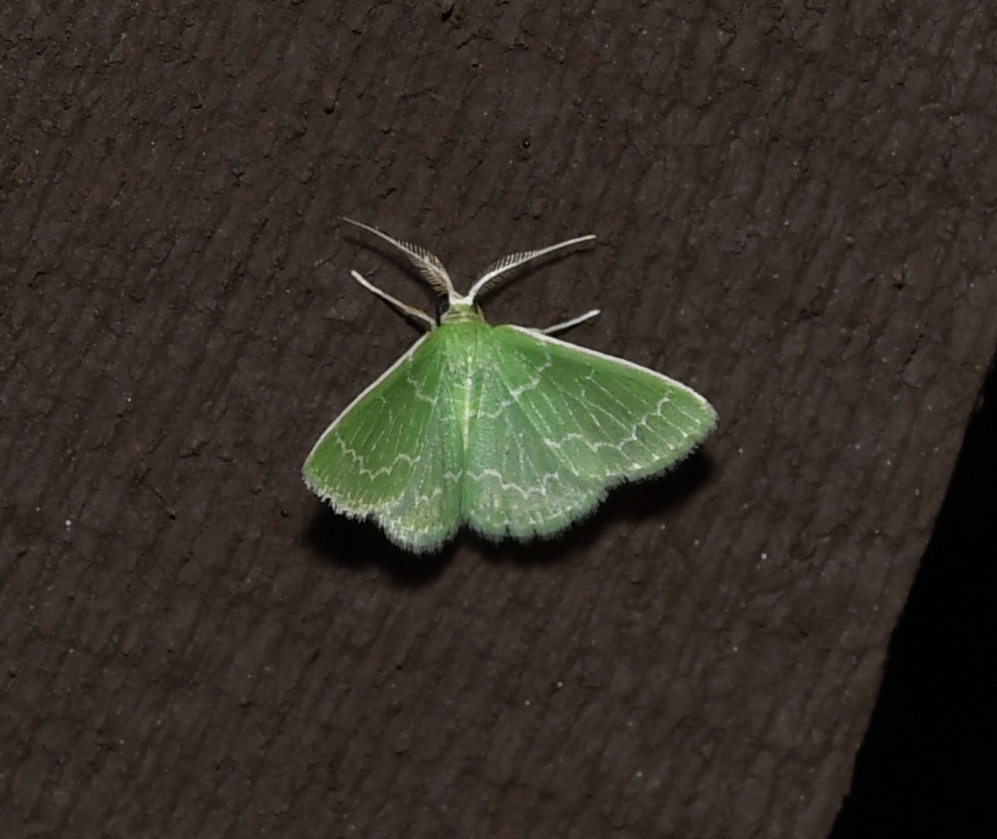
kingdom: Animalia
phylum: Arthropoda
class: Insecta
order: Lepidoptera
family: Geometridae
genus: Synchlora
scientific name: Synchlora frondaria
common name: Southern emerald
